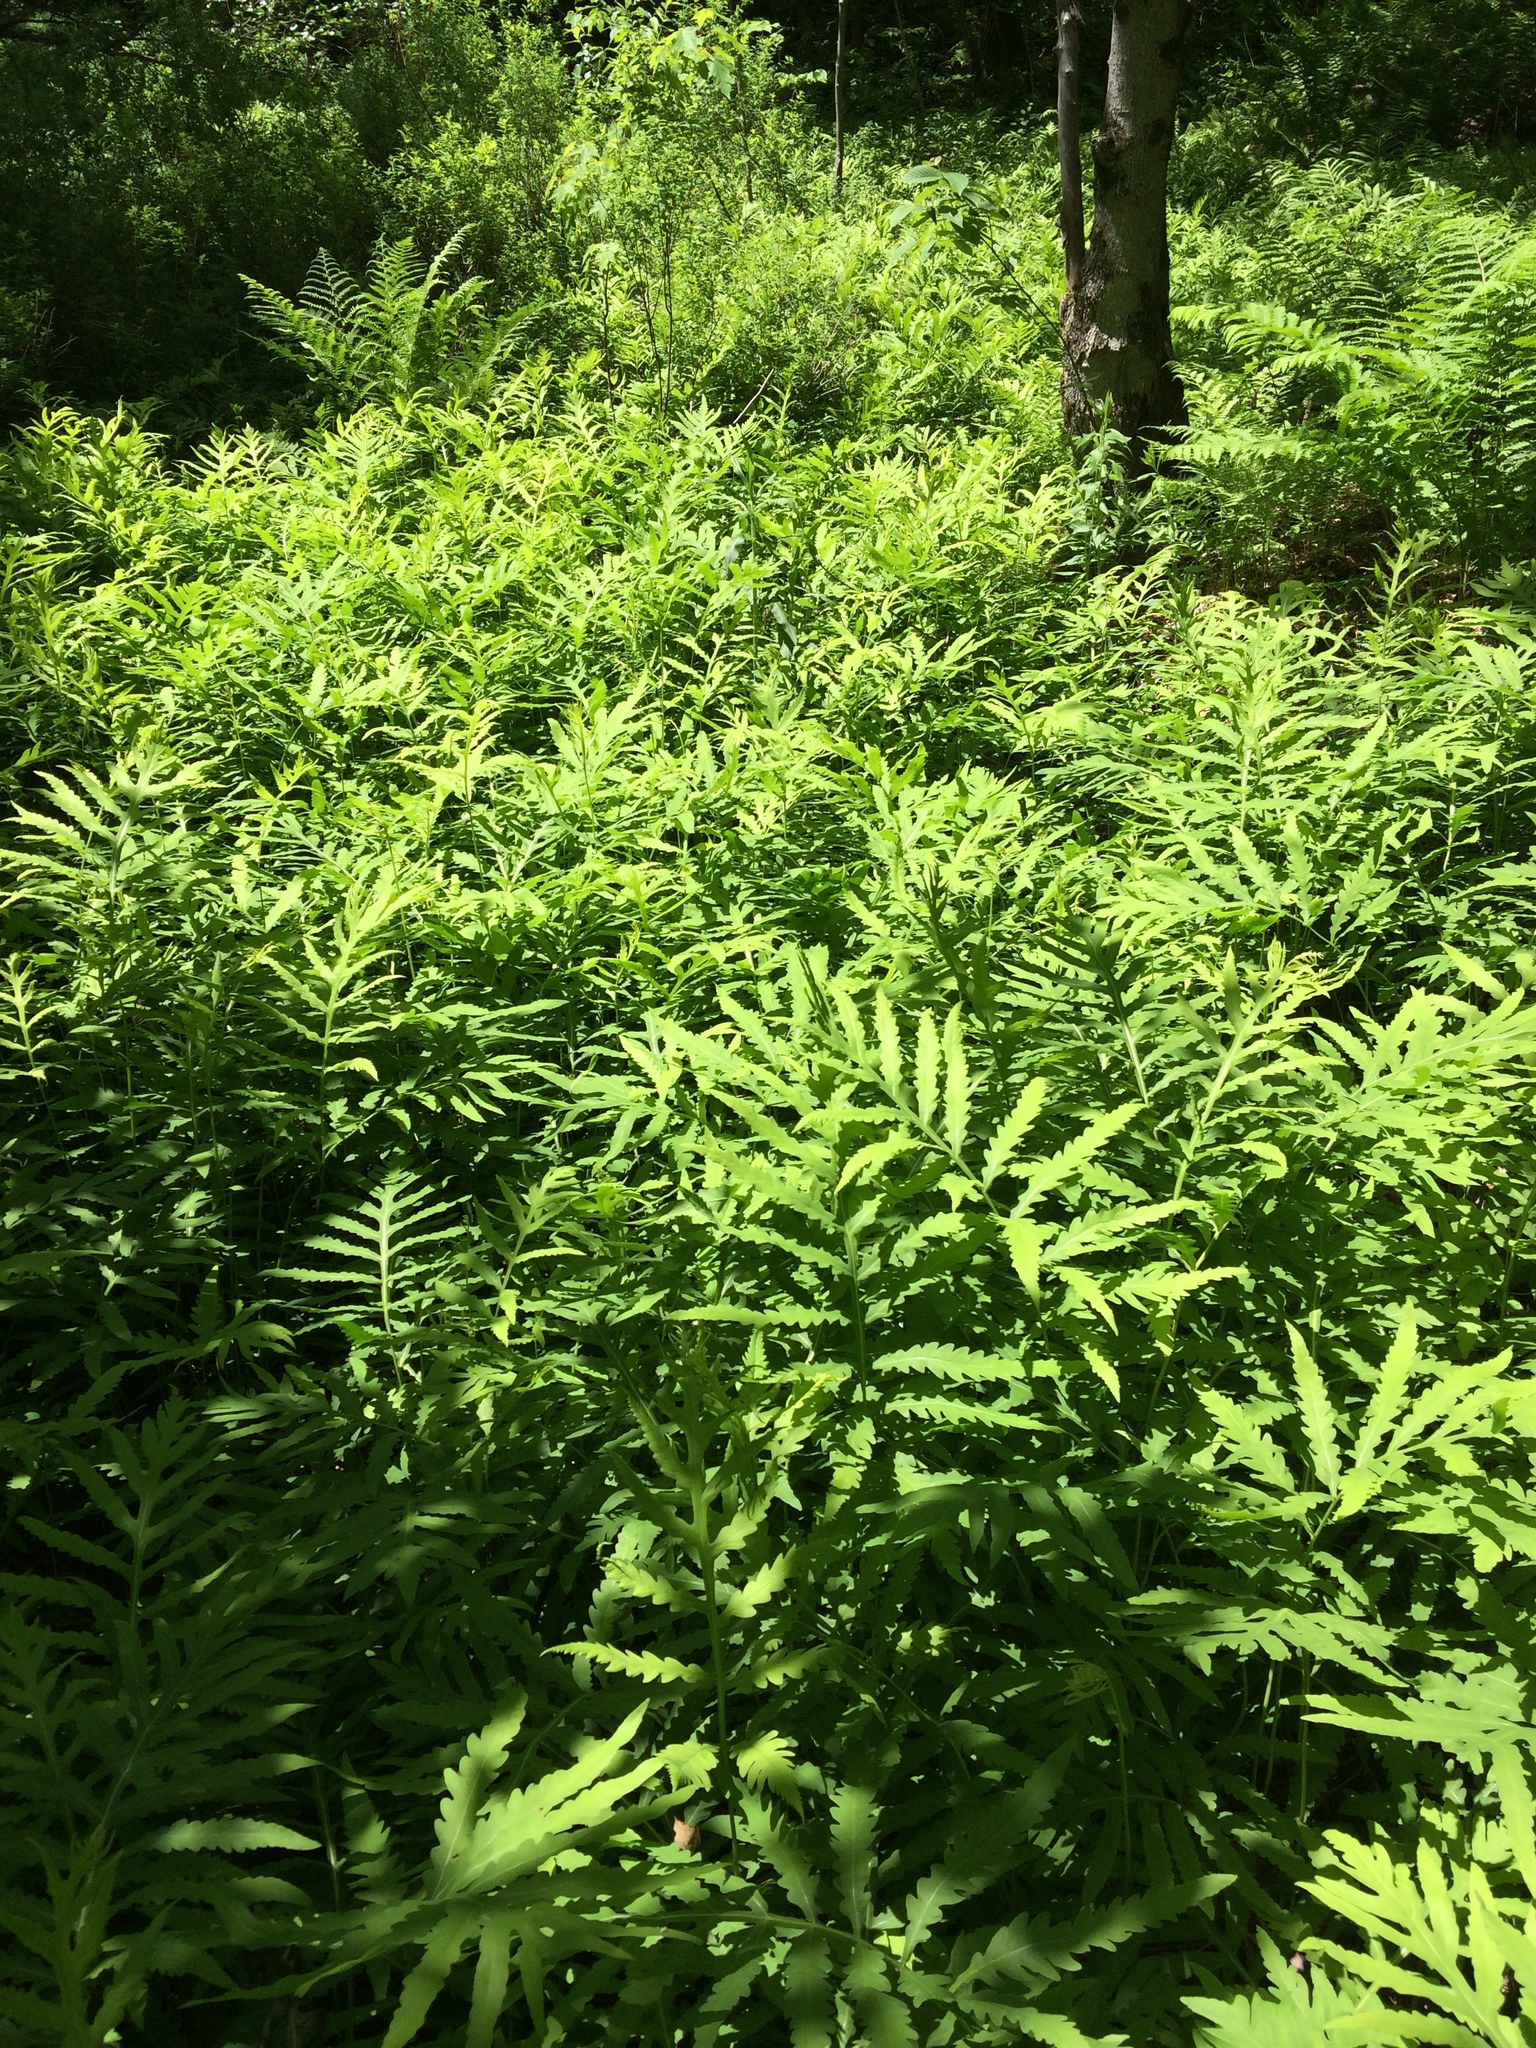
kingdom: Plantae
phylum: Tracheophyta
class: Polypodiopsida
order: Polypodiales
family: Onocleaceae
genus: Onoclea
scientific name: Onoclea sensibilis
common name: Sensitive fern
